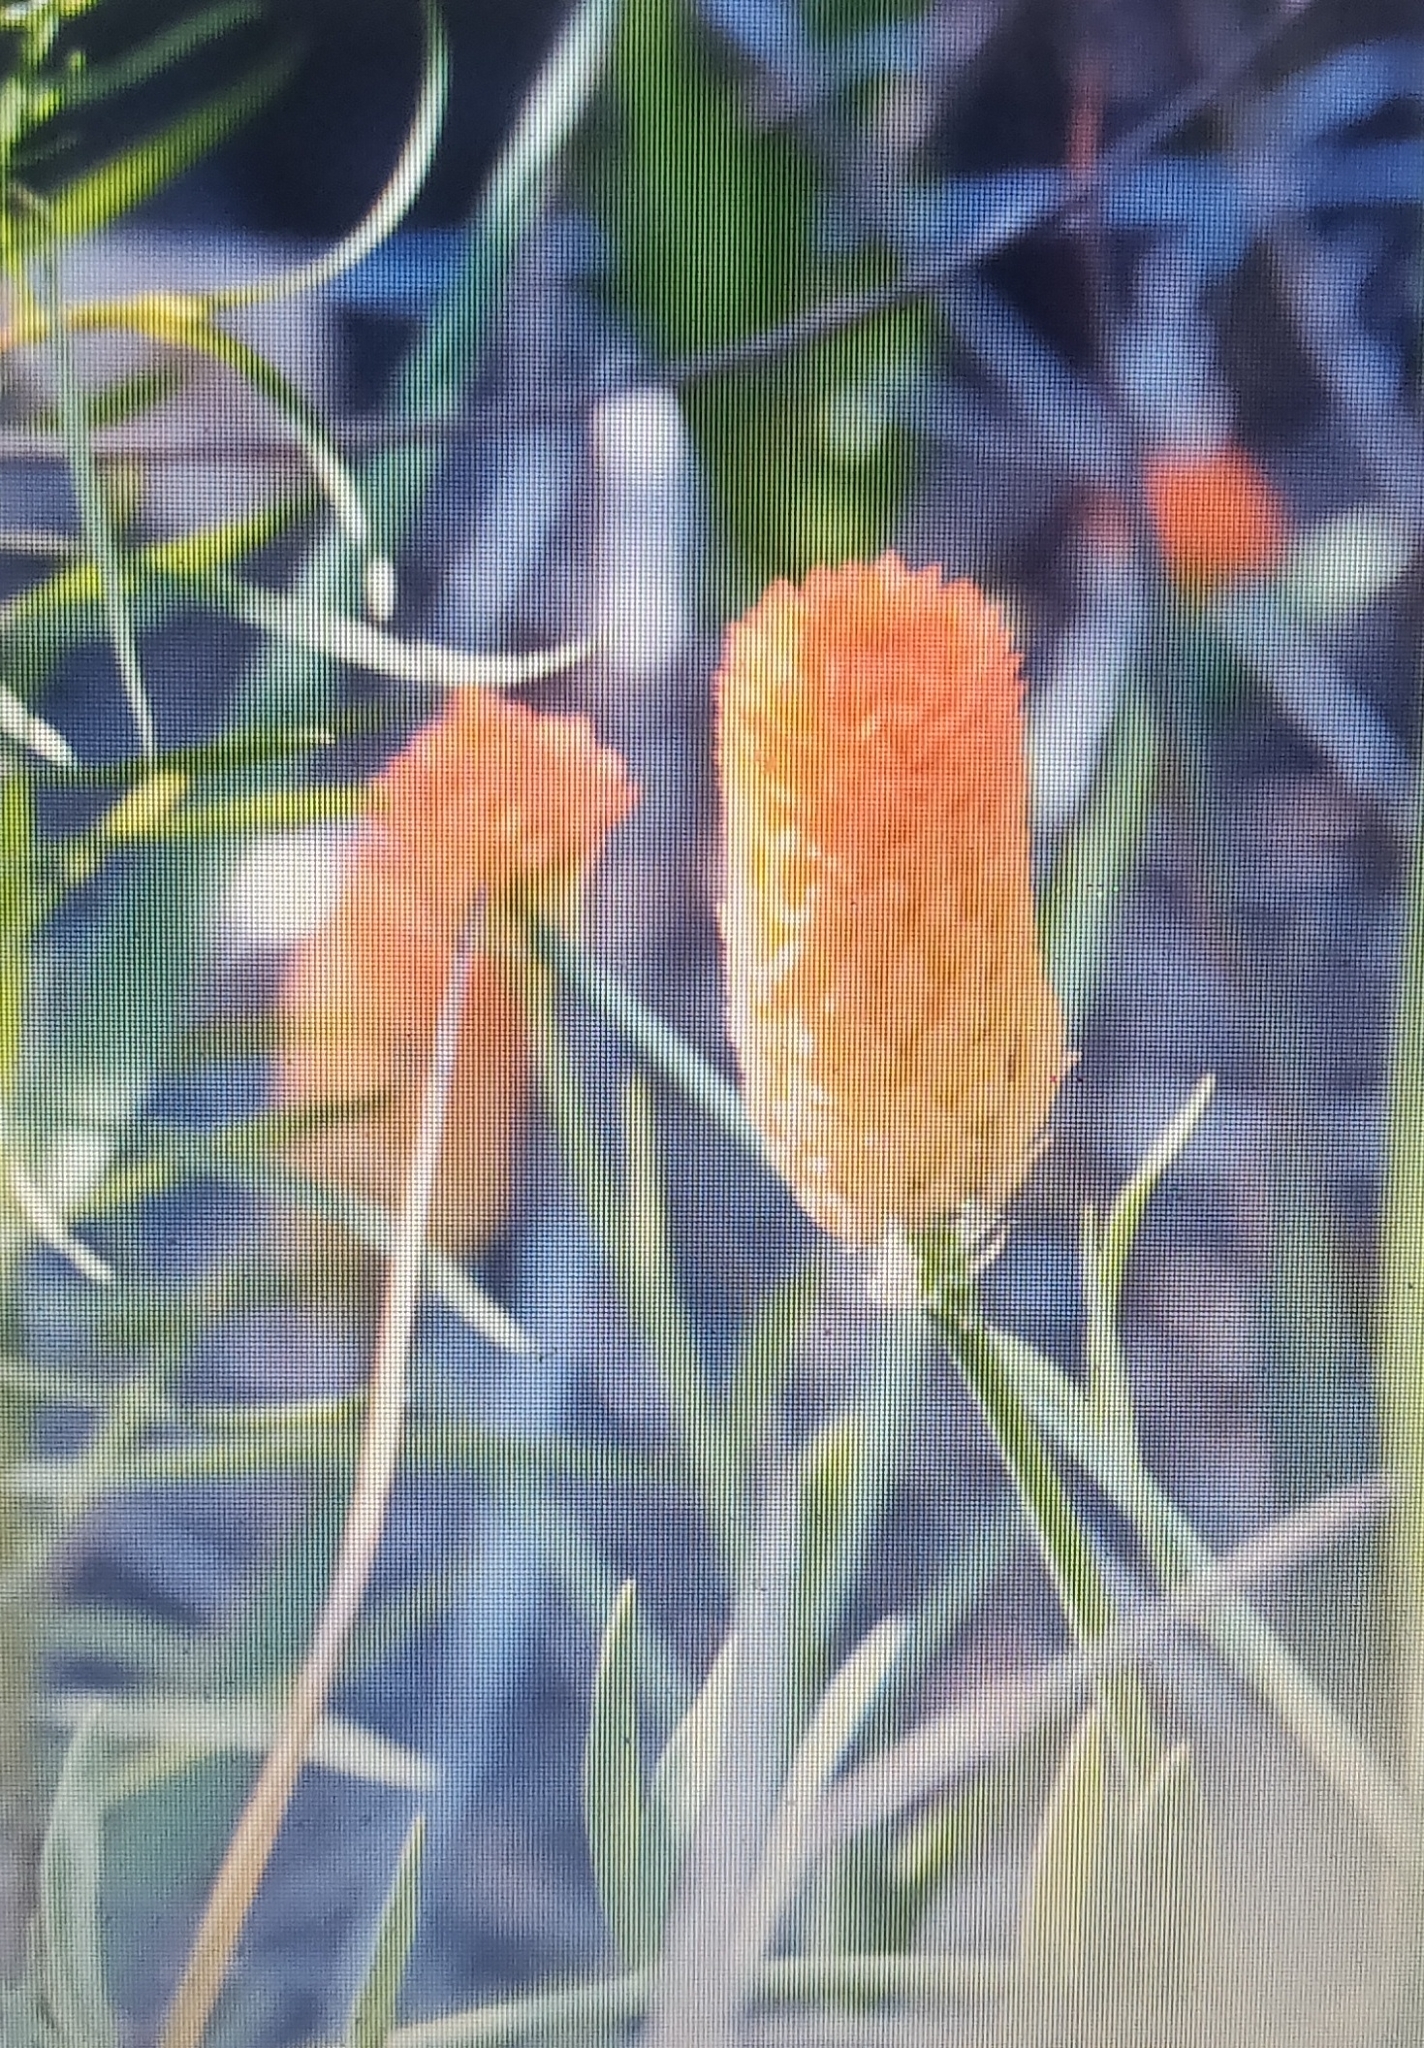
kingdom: Plantae
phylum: Tracheophyta
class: Magnoliopsida
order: Fabales
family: Polygalaceae
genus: Polygala
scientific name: Polygala lutea
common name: Orange milkwort
